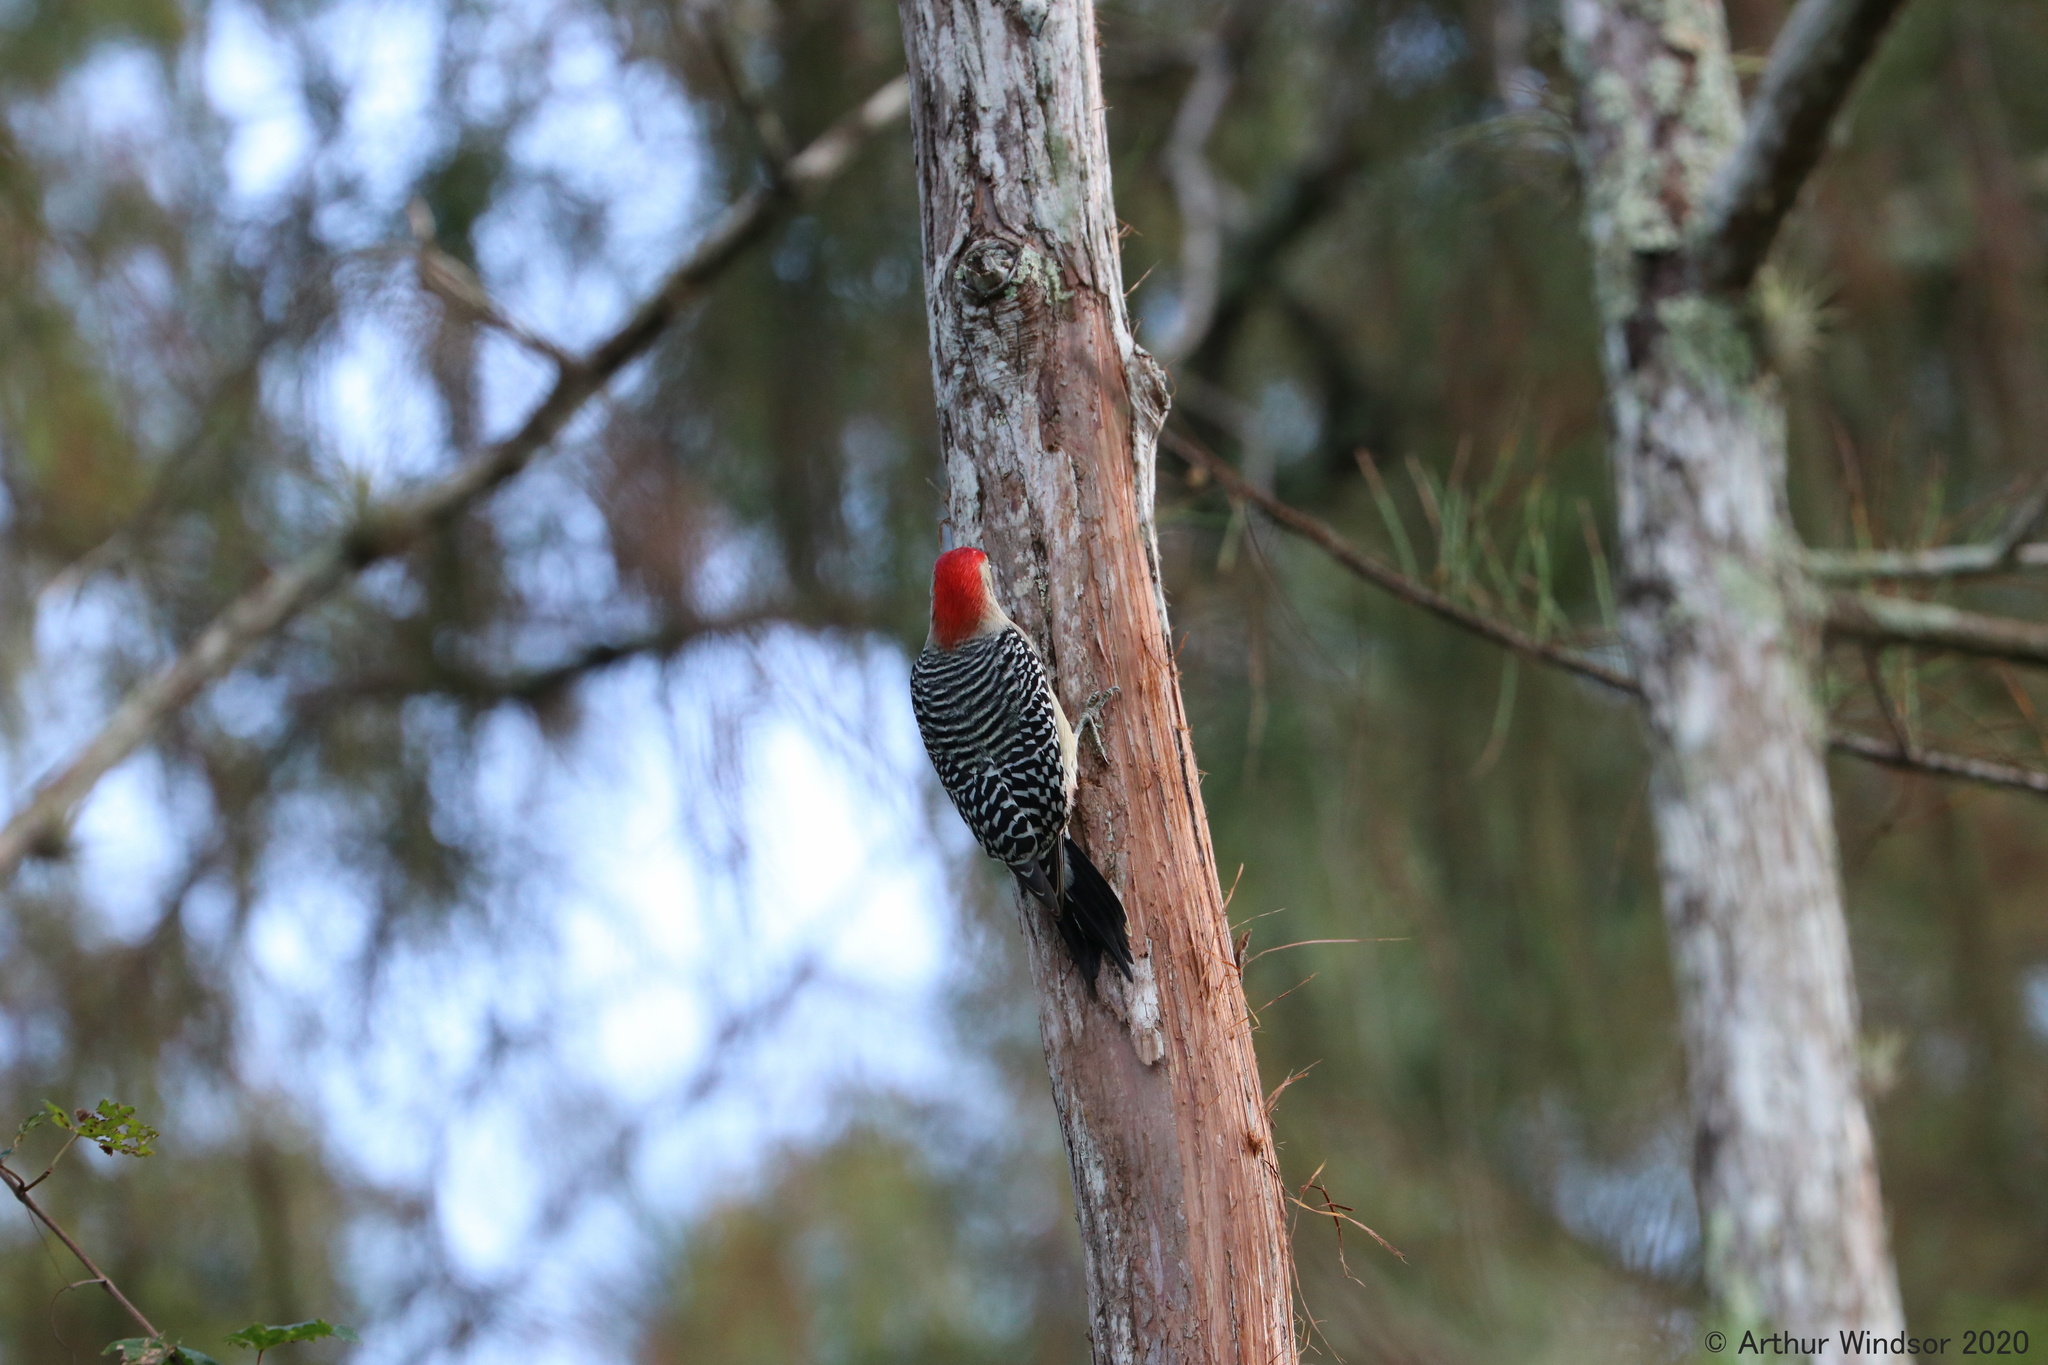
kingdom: Animalia
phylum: Chordata
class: Aves
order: Piciformes
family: Picidae
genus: Melanerpes
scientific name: Melanerpes carolinus
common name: Red-bellied woodpecker
